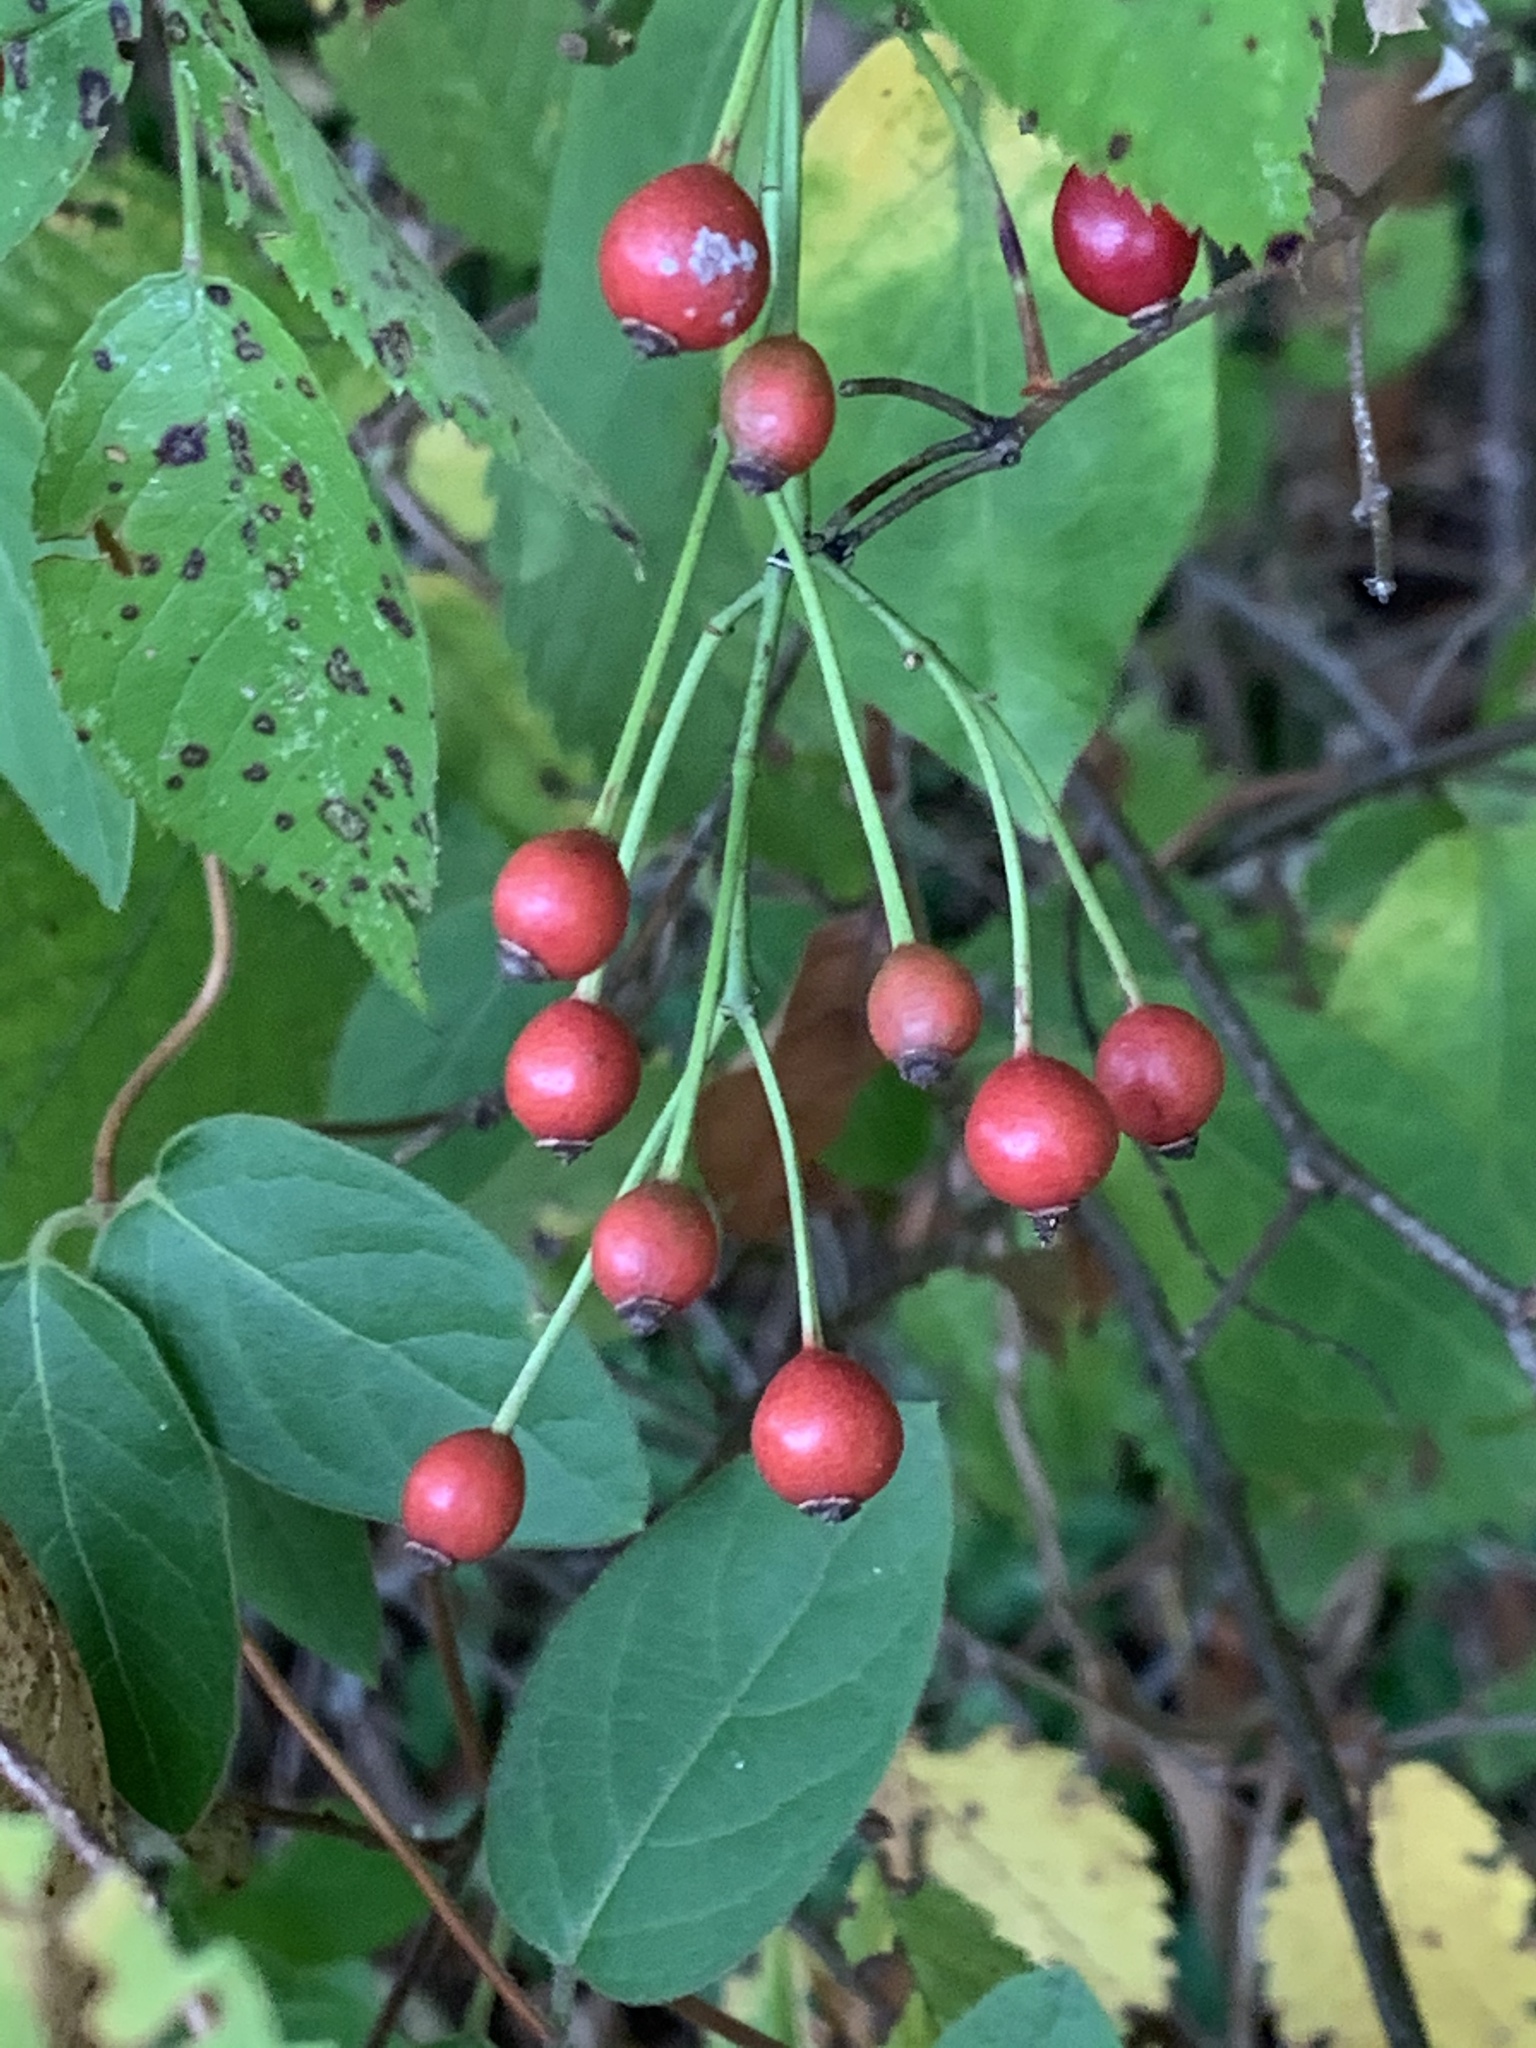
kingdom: Plantae
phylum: Tracheophyta
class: Magnoliopsida
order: Rosales
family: Rosaceae
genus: Rosa
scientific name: Rosa multiflora
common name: Multiflora rose
